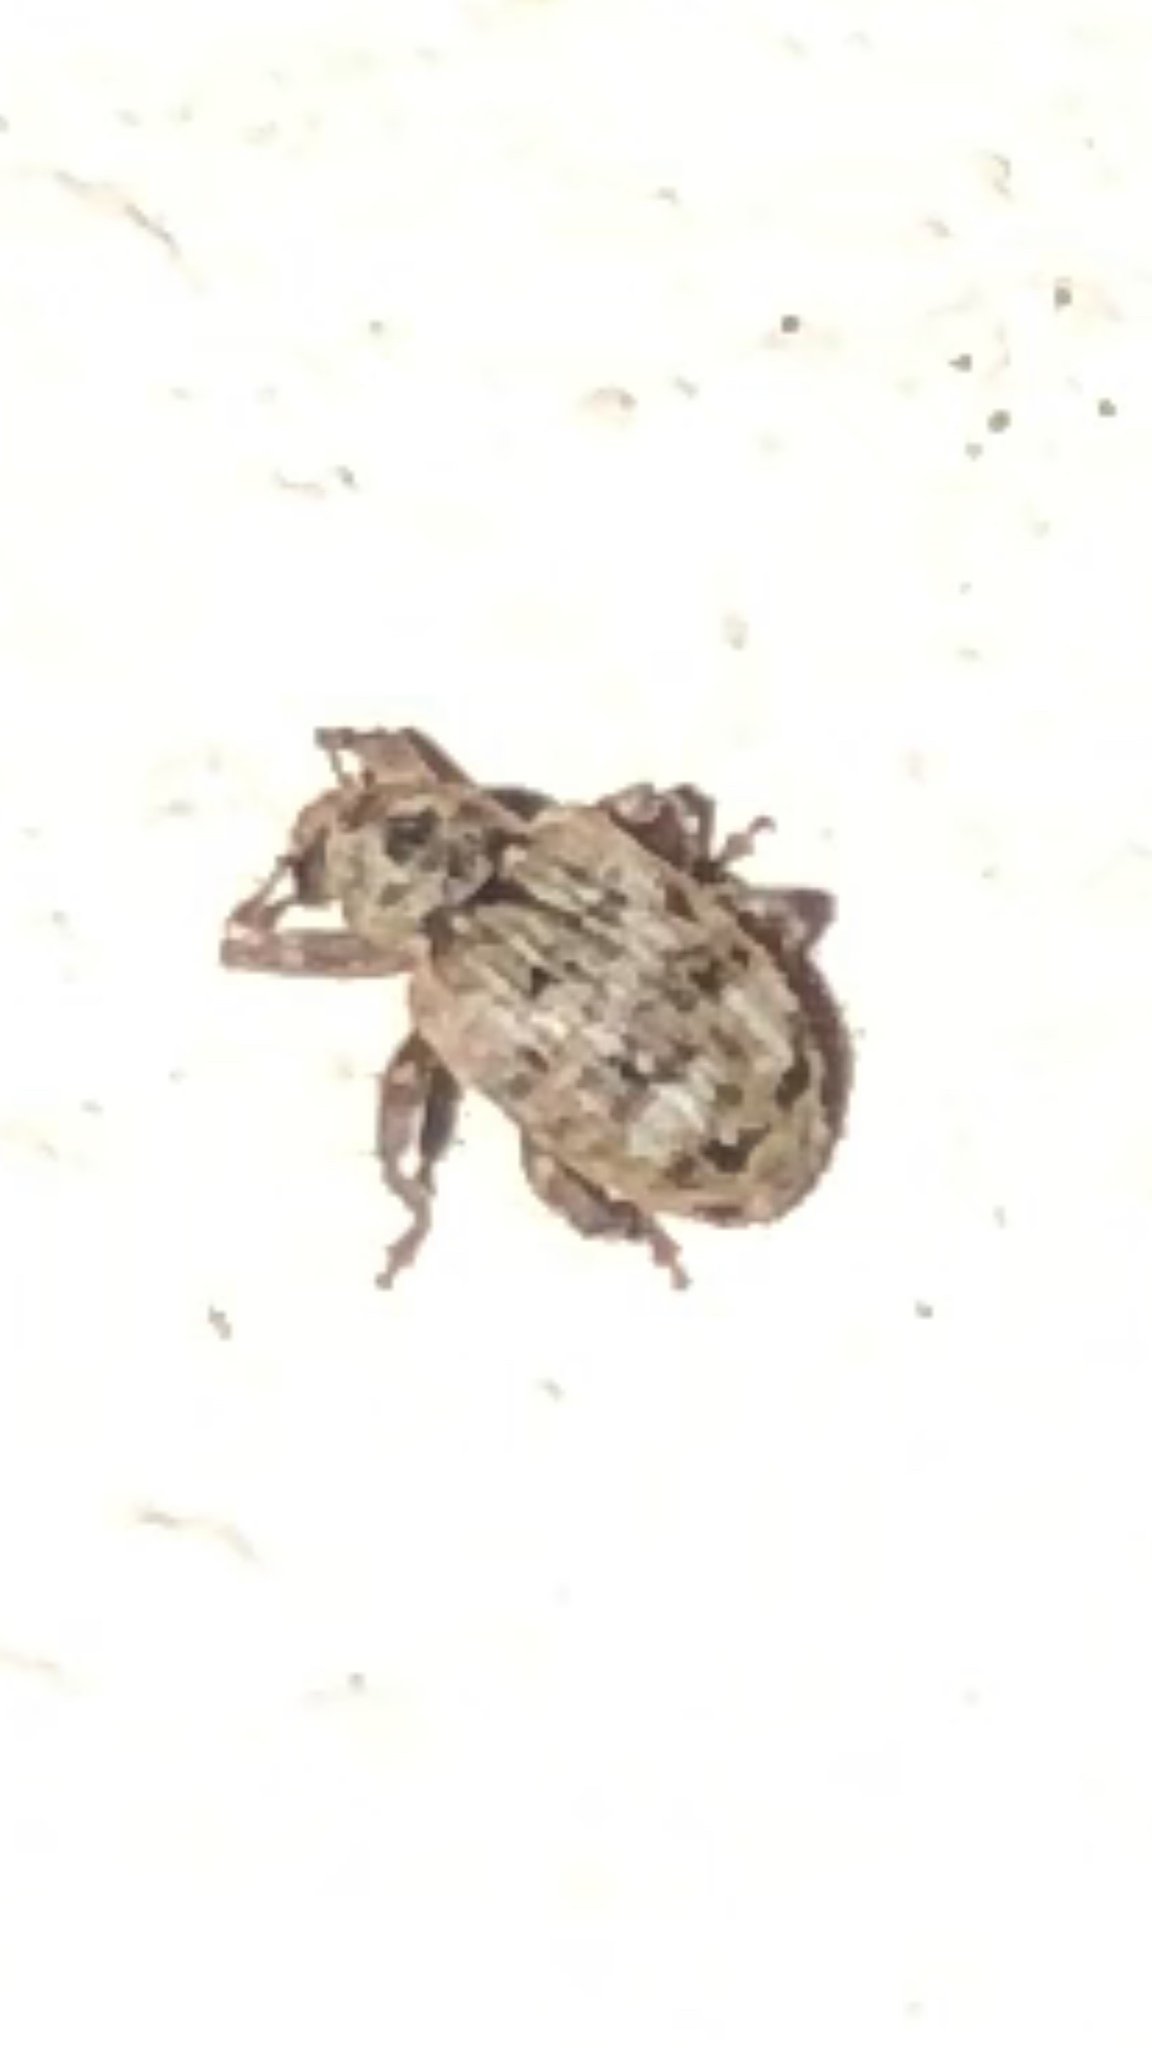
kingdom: Animalia
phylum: Arthropoda
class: Insecta
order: Coleoptera
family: Curculionidae
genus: Conotrachelus
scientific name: Conotrachelus recessus
